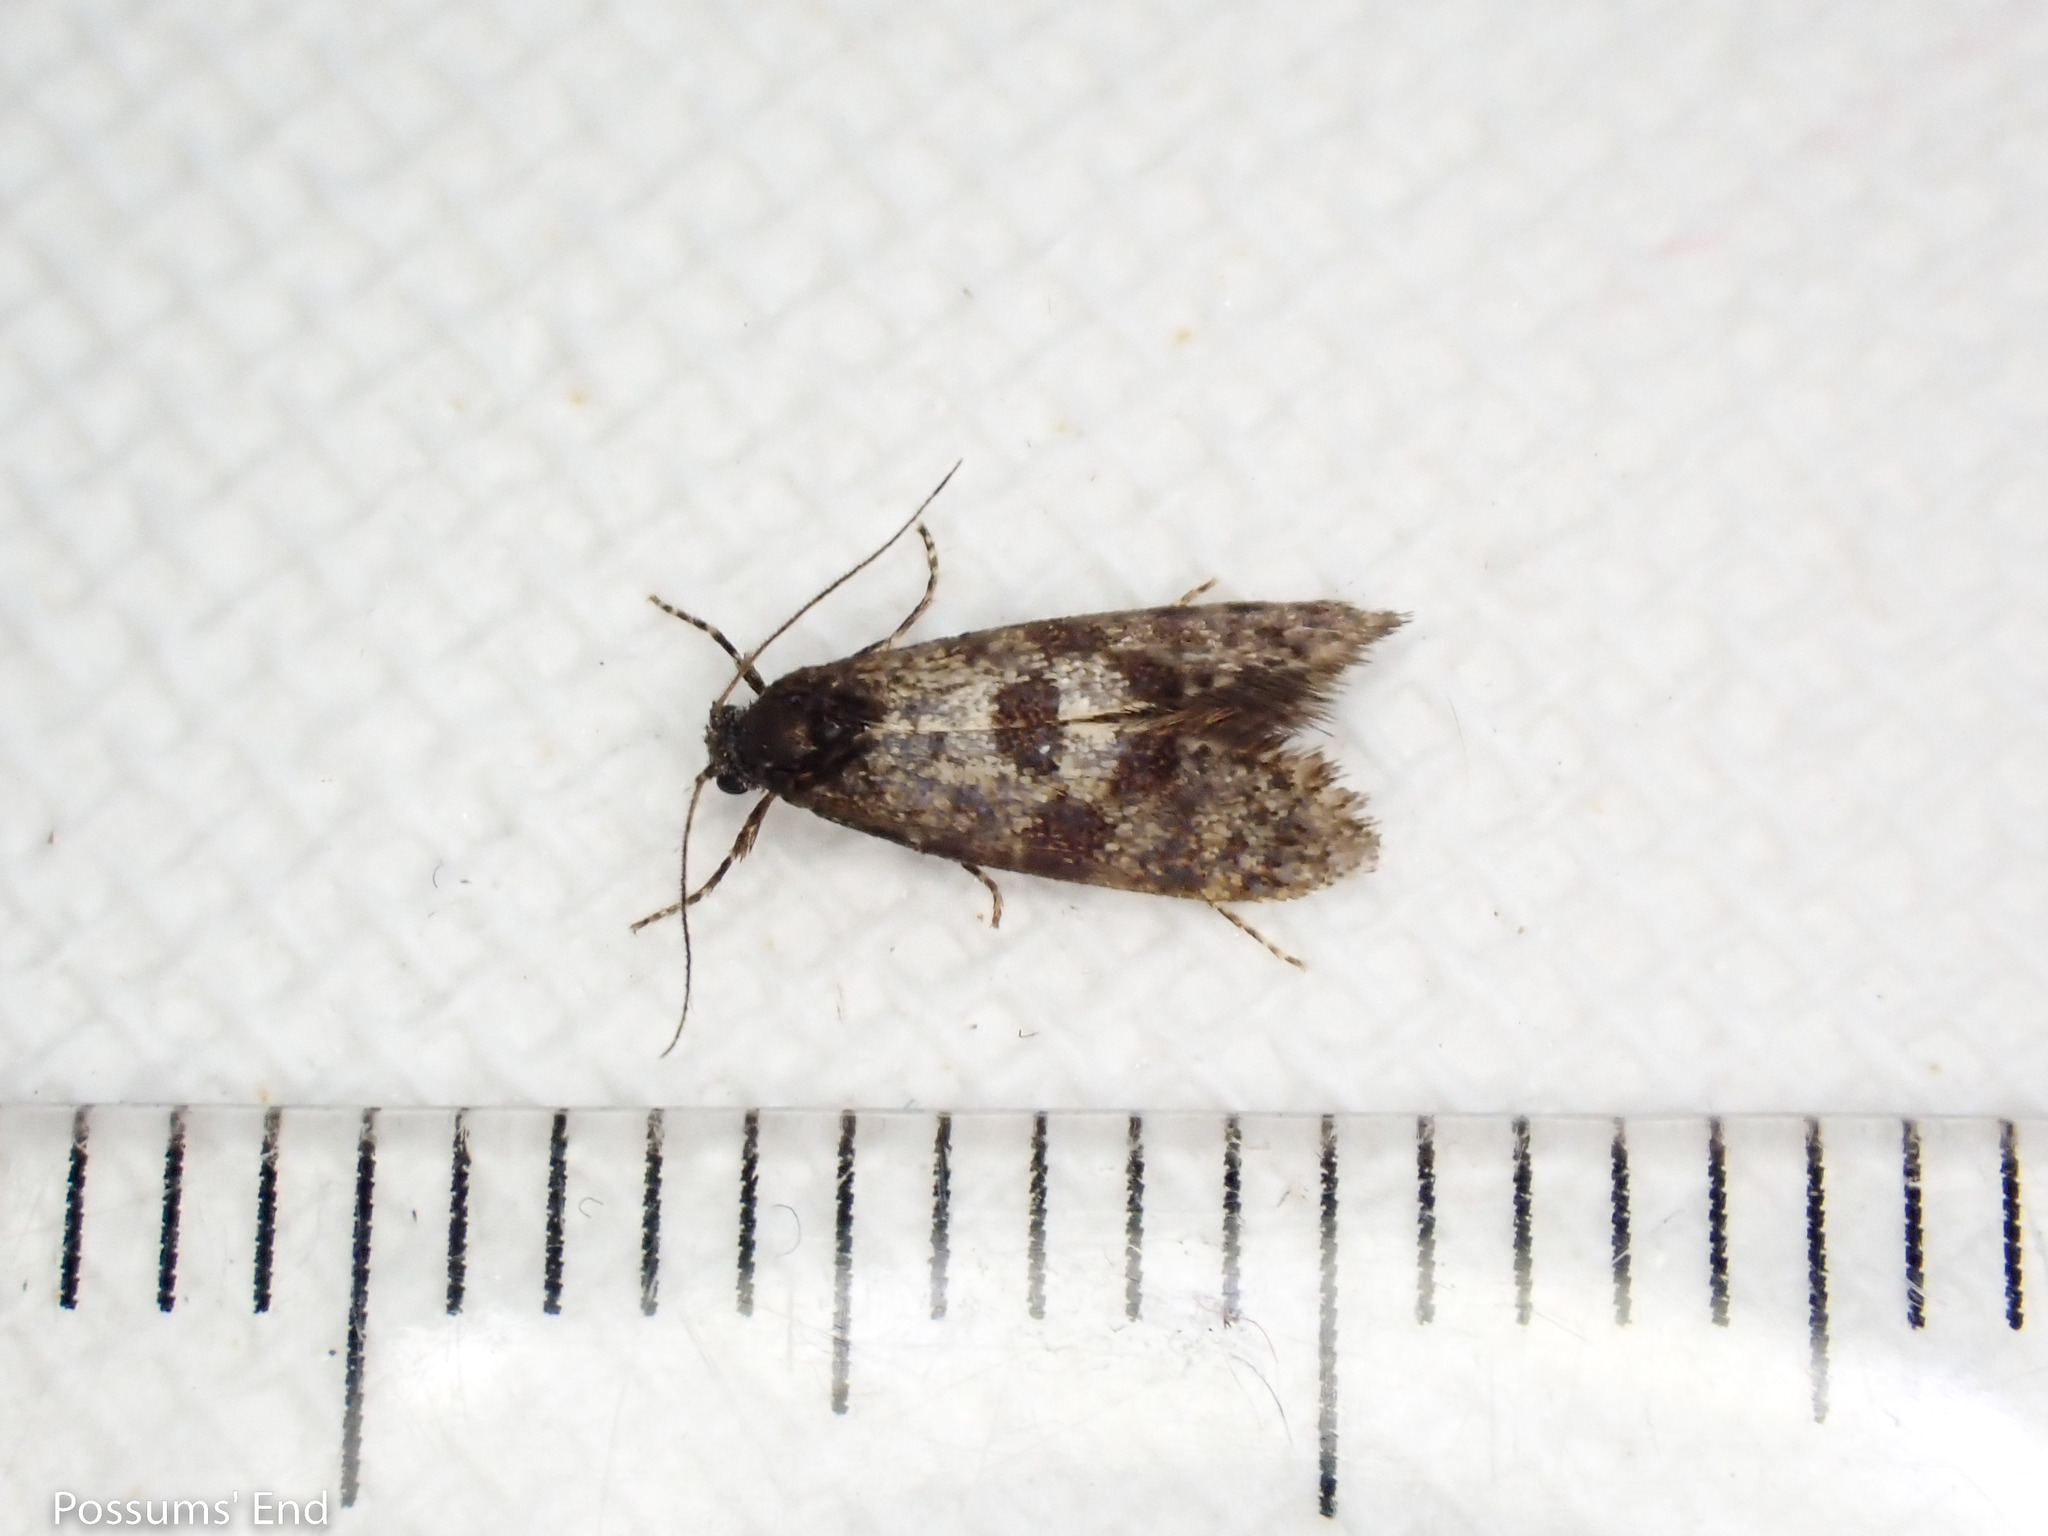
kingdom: Animalia
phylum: Arthropoda
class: Insecta
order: Lepidoptera
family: Psychidae
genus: Mallobathra
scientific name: Mallobathra perisseuta
